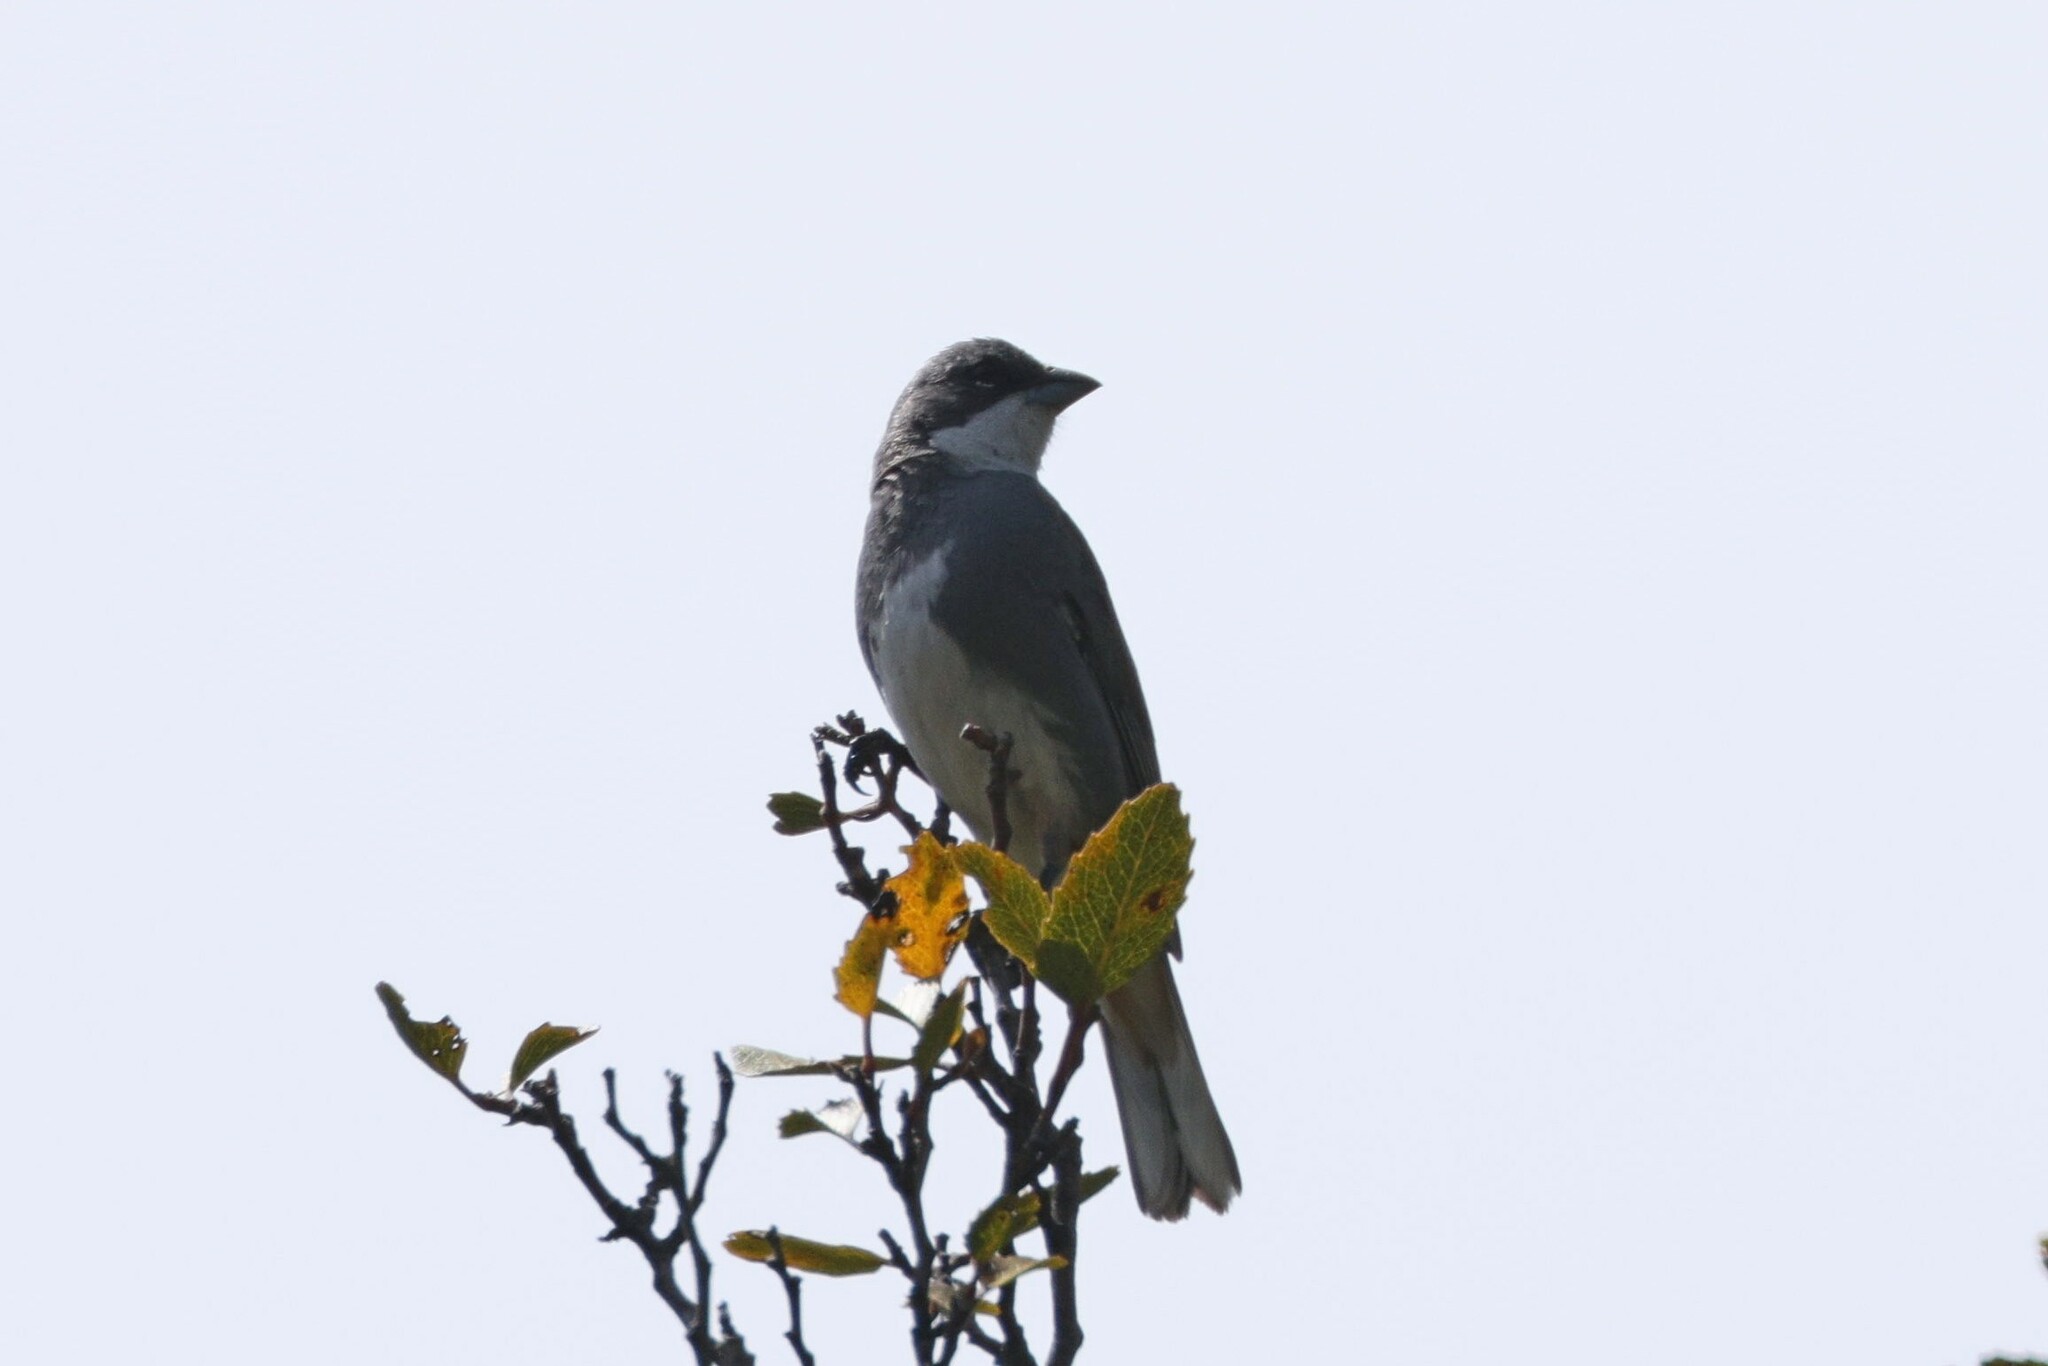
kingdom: Animalia
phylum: Chordata
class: Aves
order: Passeriformes
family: Thraupidae
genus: Diuca
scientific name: Diuca diuca
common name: Common diuca finch
